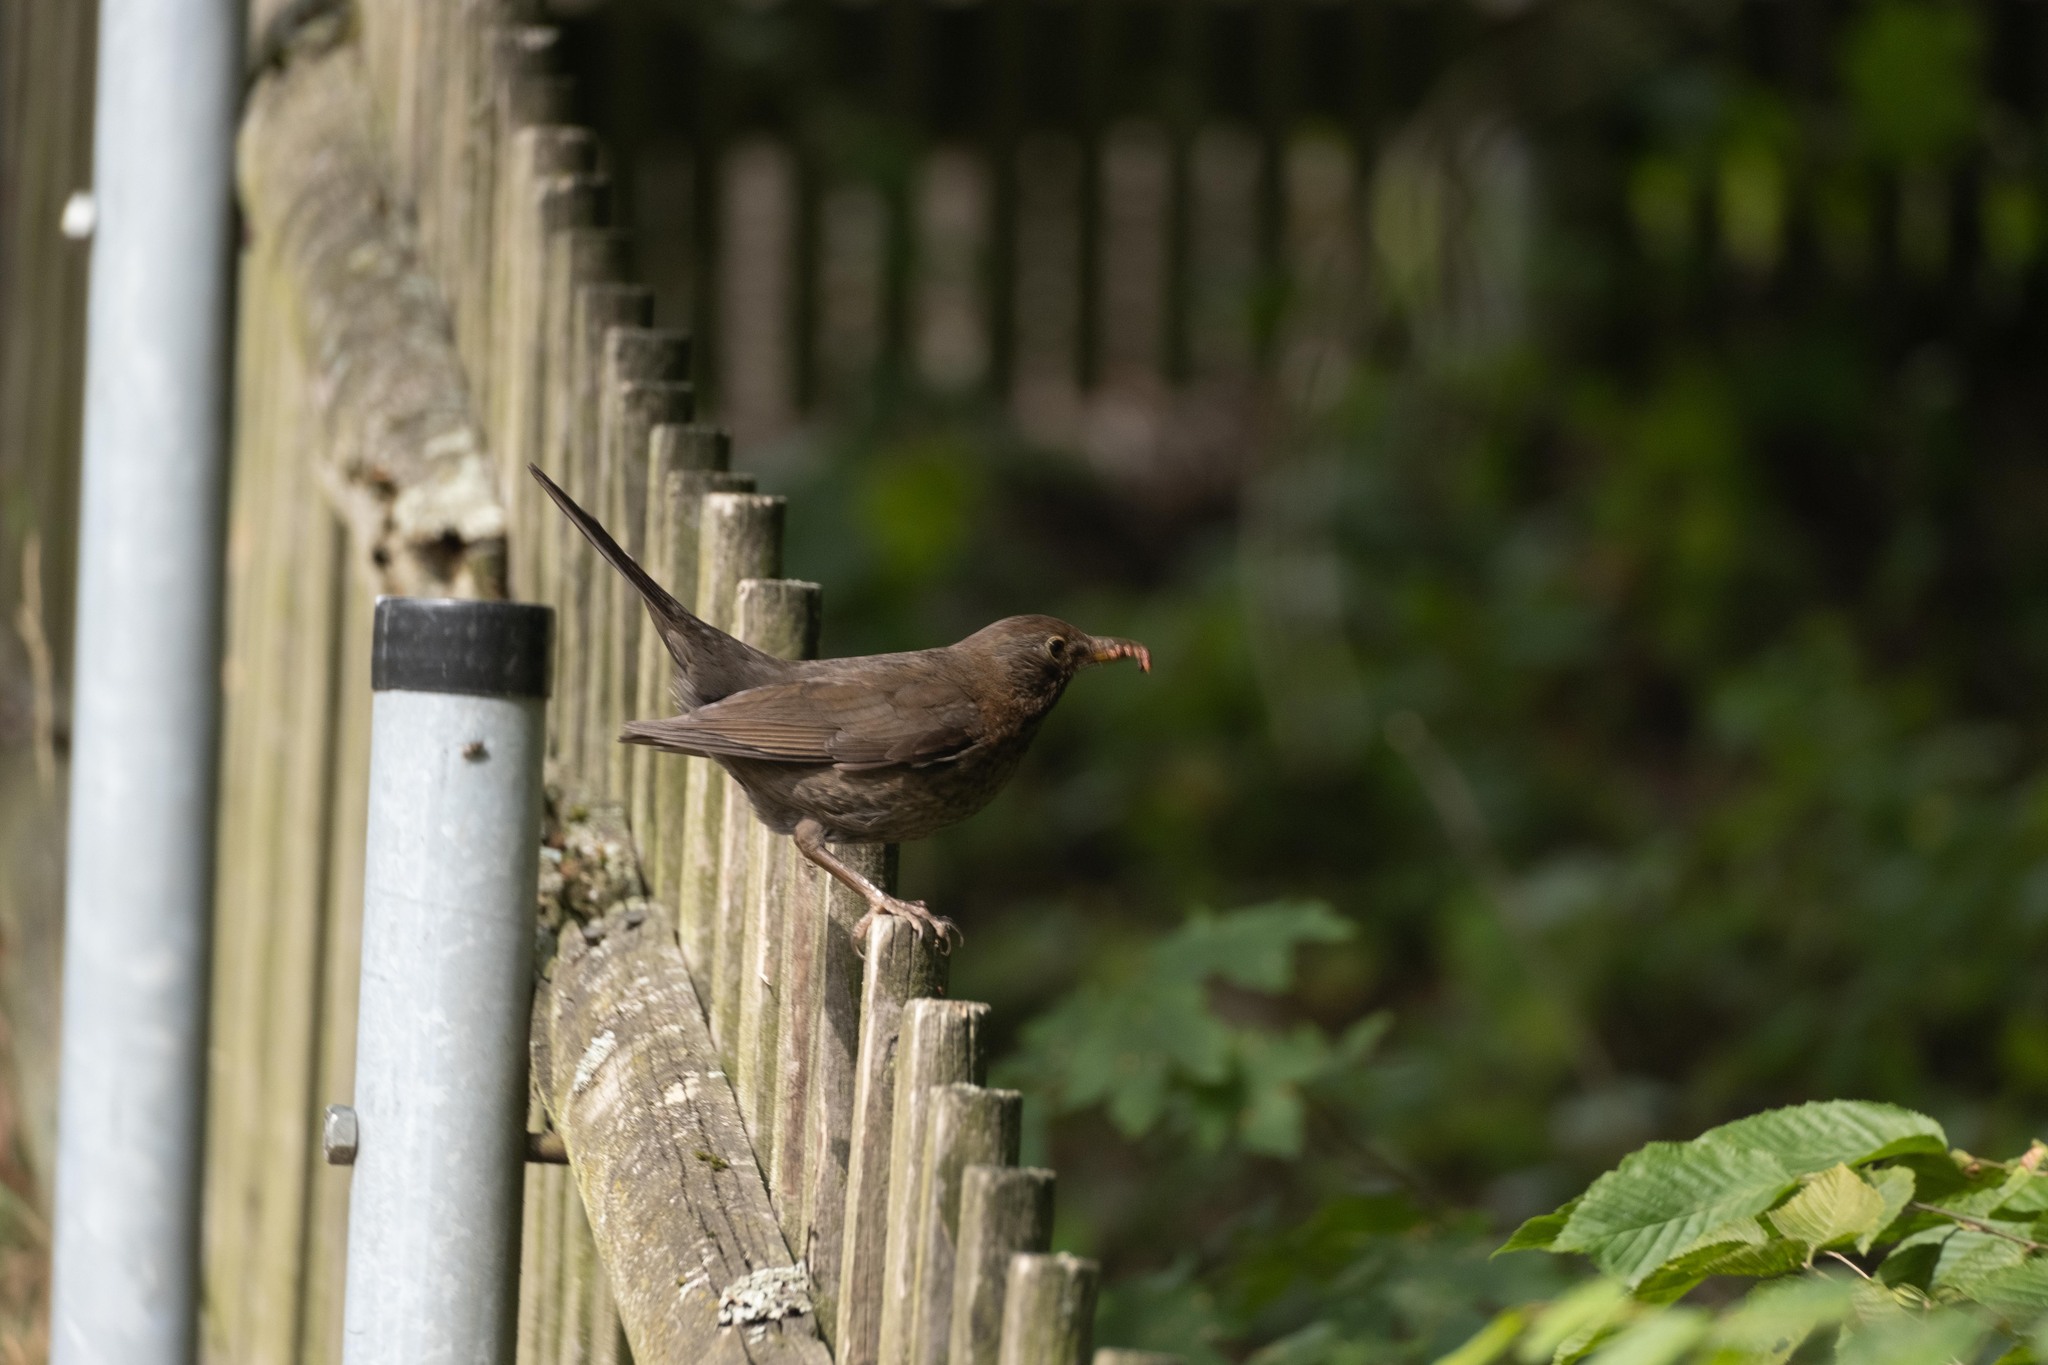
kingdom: Animalia
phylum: Chordata
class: Aves
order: Passeriformes
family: Turdidae
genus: Turdus
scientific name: Turdus merula
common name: Common blackbird
